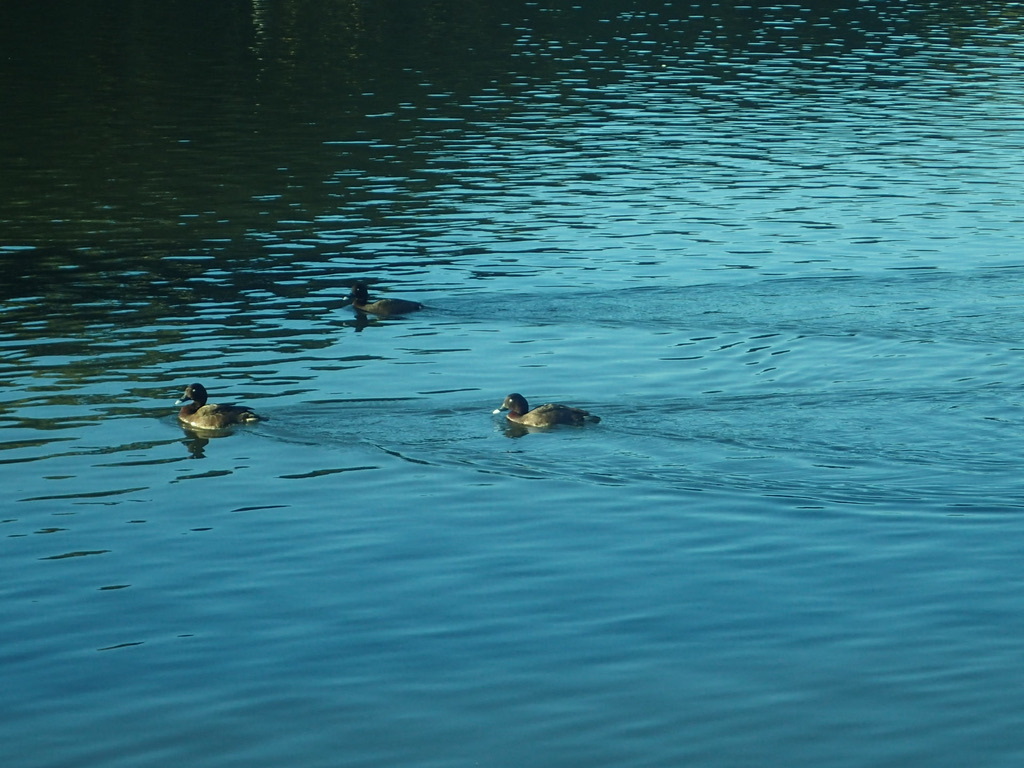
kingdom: Animalia
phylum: Chordata
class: Aves
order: Anseriformes
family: Anatidae
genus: Aythya
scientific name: Aythya australis
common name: Hardhead
